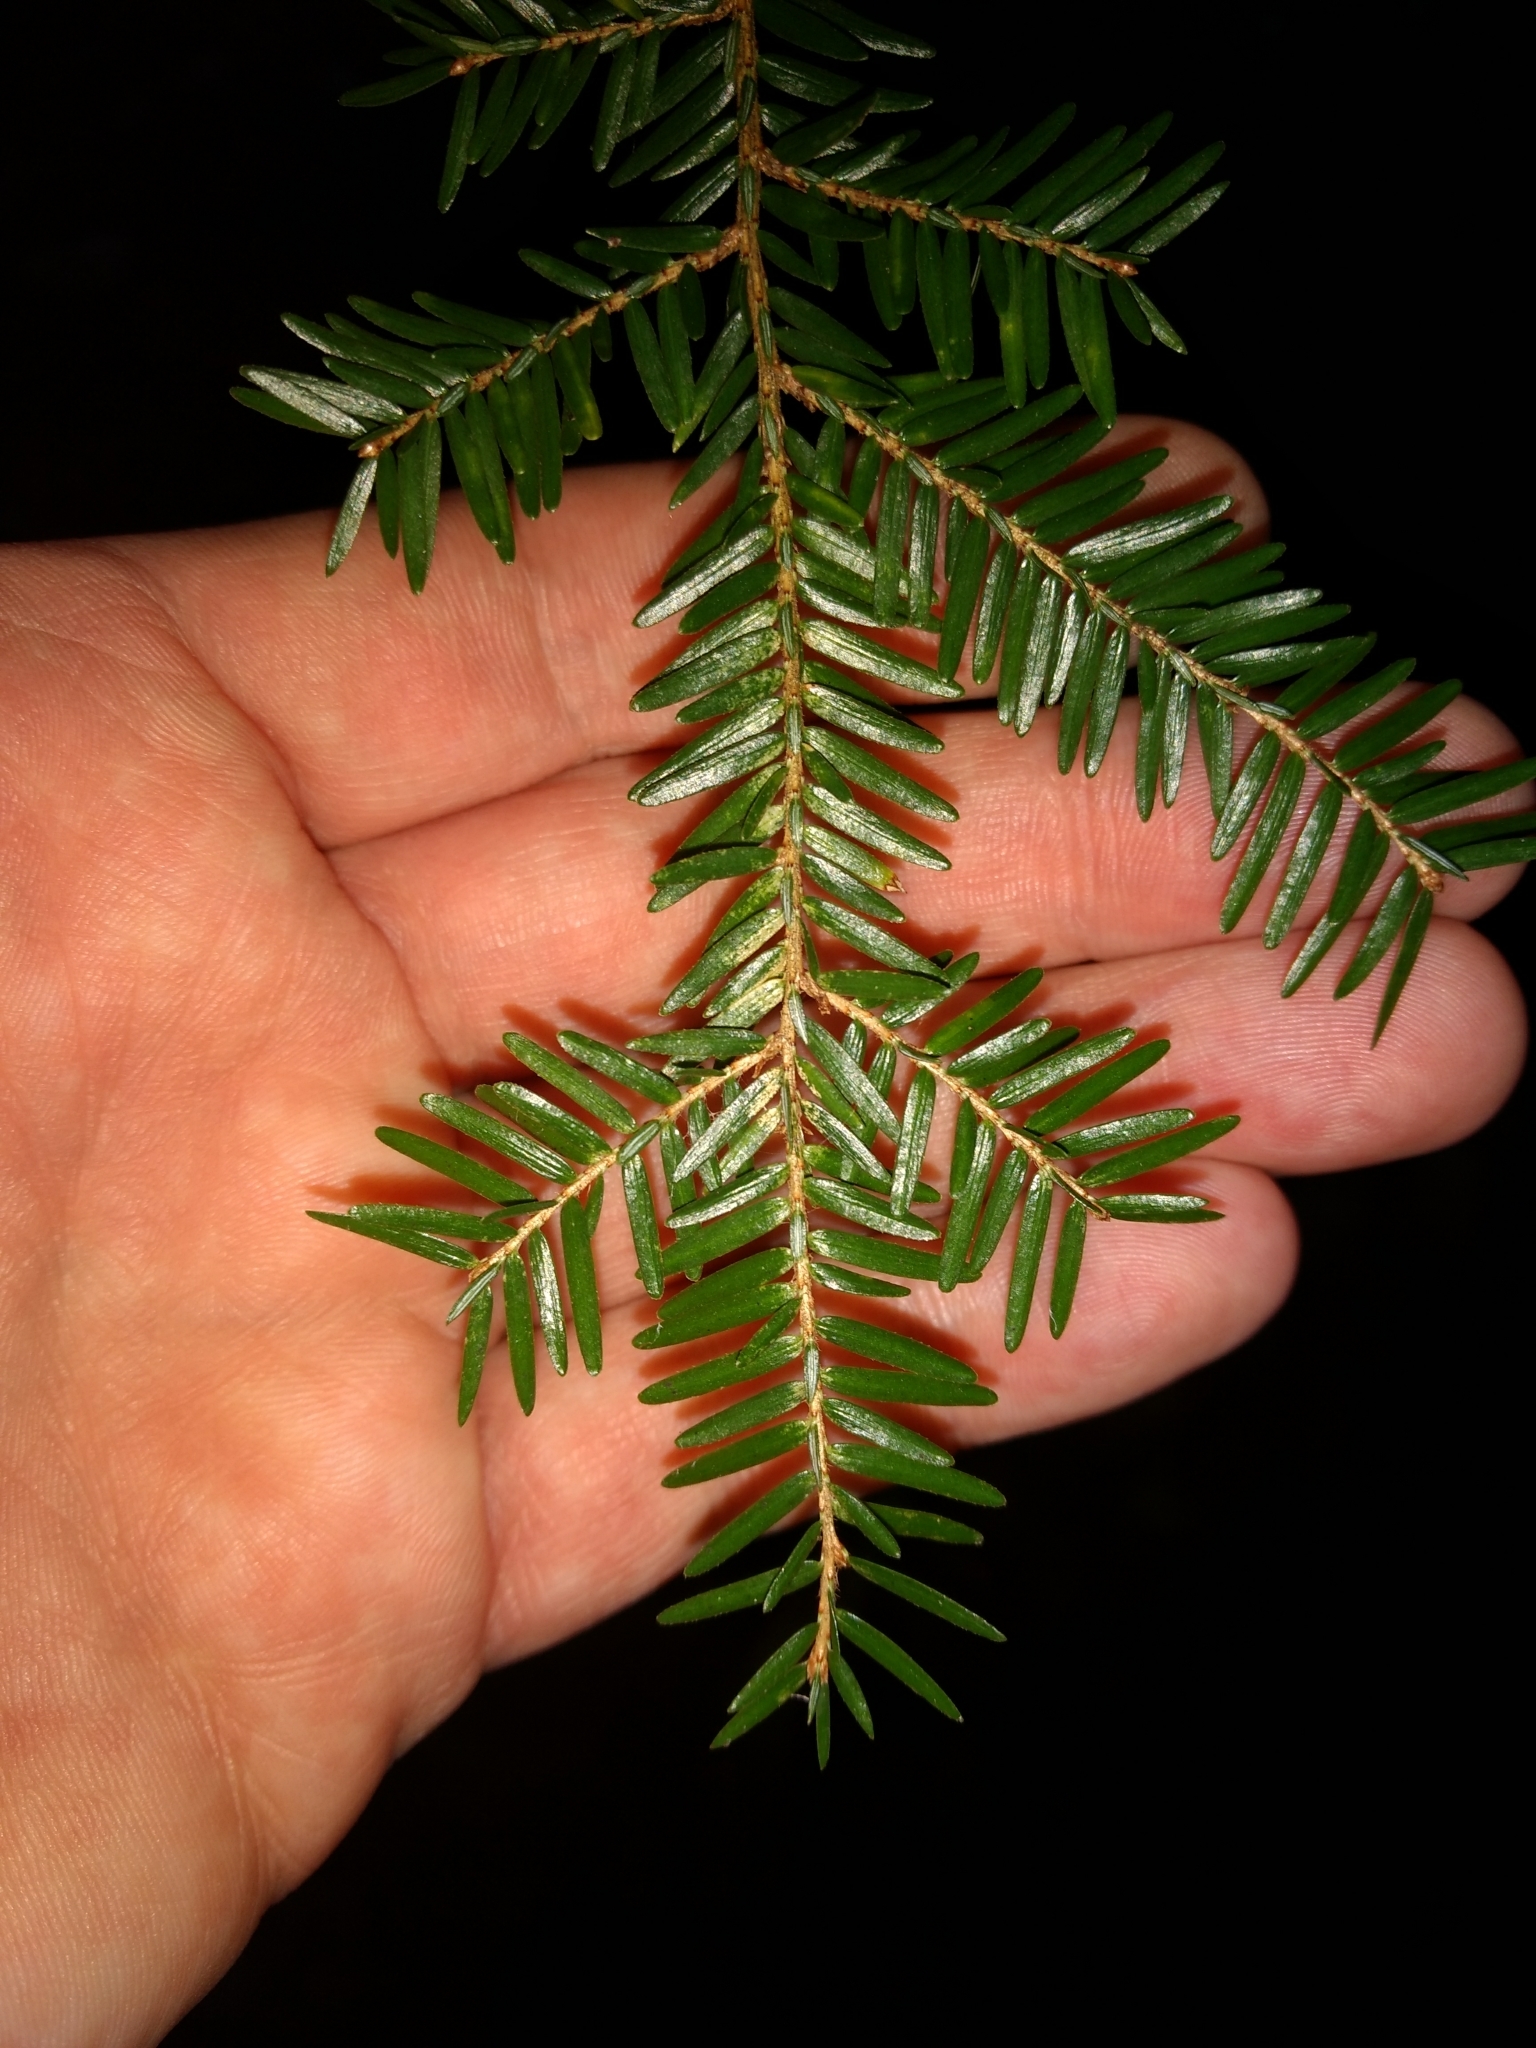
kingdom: Plantae
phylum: Tracheophyta
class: Pinopsida
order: Pinales
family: Pinaceae
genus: Tsuga
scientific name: Tsuga canadensis
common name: Eastern hemlock
